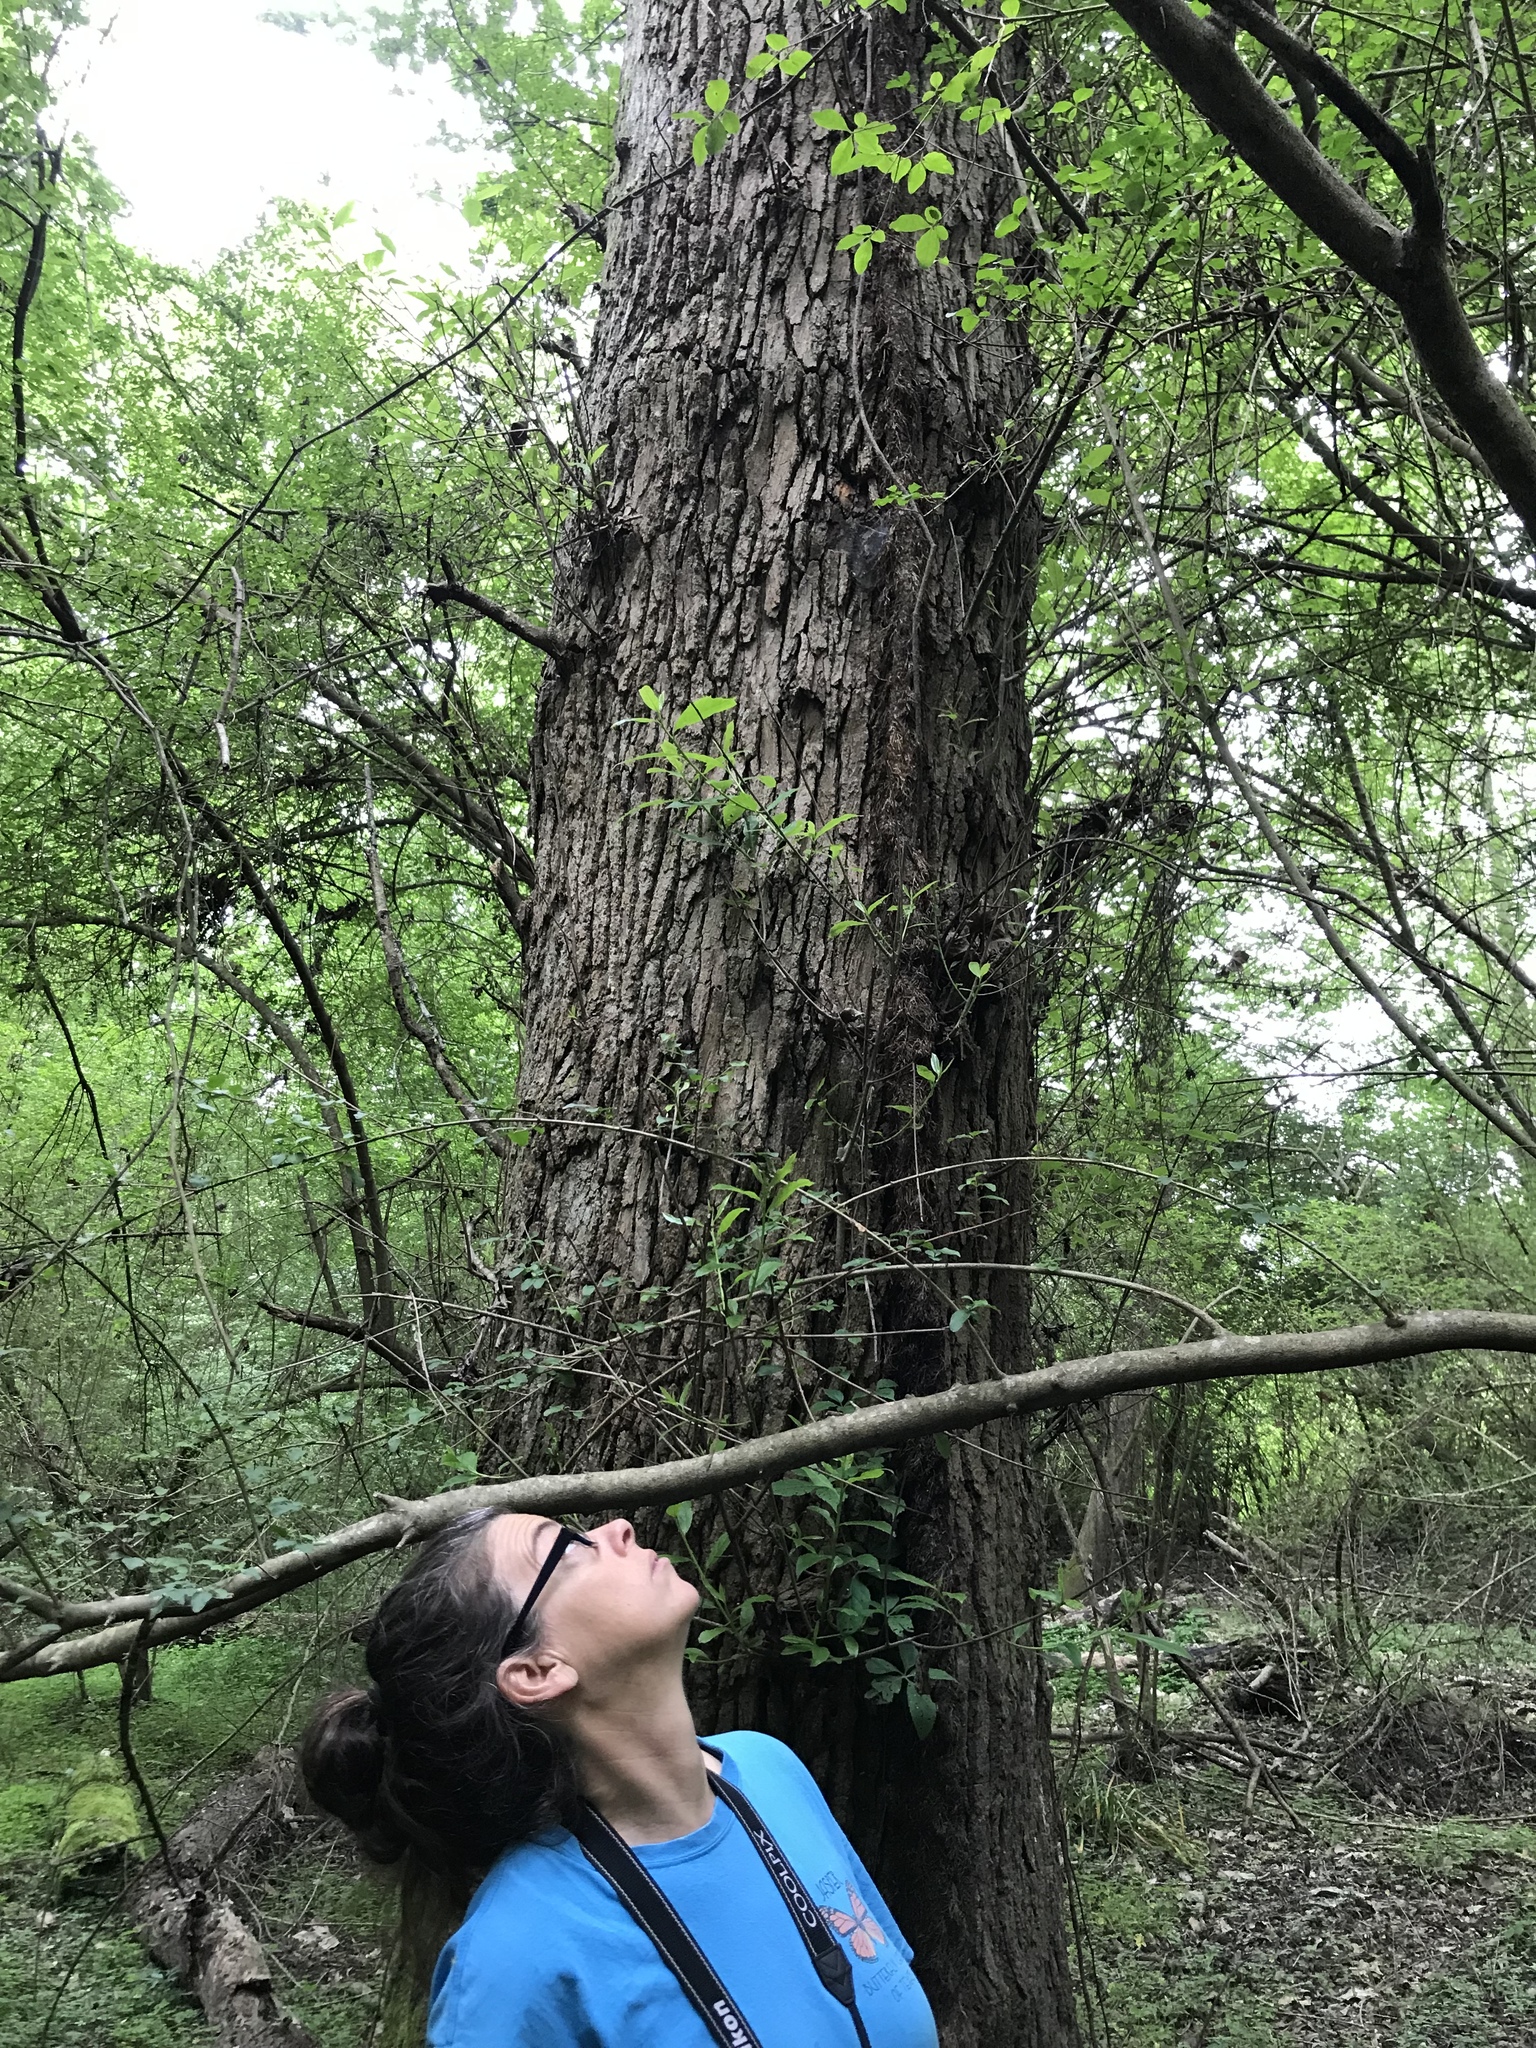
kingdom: Plantae
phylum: Tracheophyta
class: Magnoliopsida
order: Cornales
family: Nyssaceae
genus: Nyssa
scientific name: Nyssa sylvatica
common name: Black tupelo
